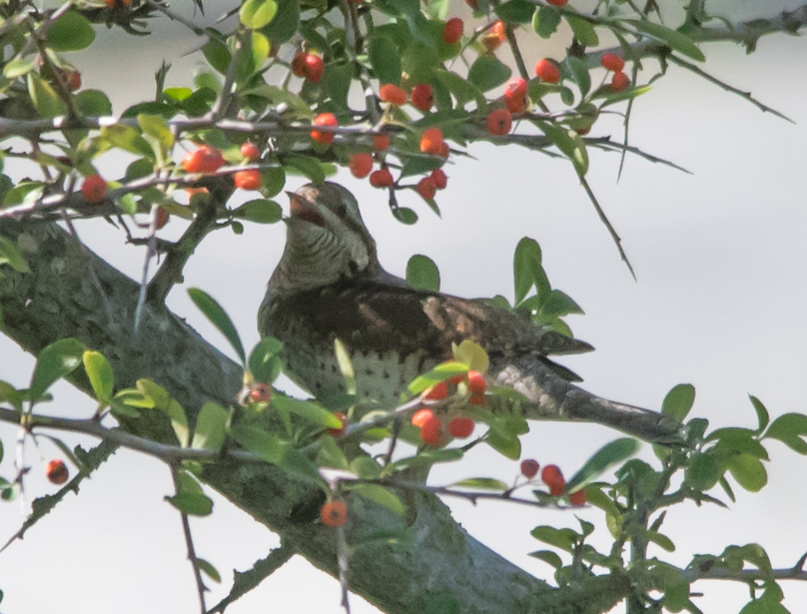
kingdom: Animalia
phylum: Chordata
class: Aves
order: Piciformes
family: Picidae
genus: Jynx
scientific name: Jynx torquilla
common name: Eurasian wryneck
